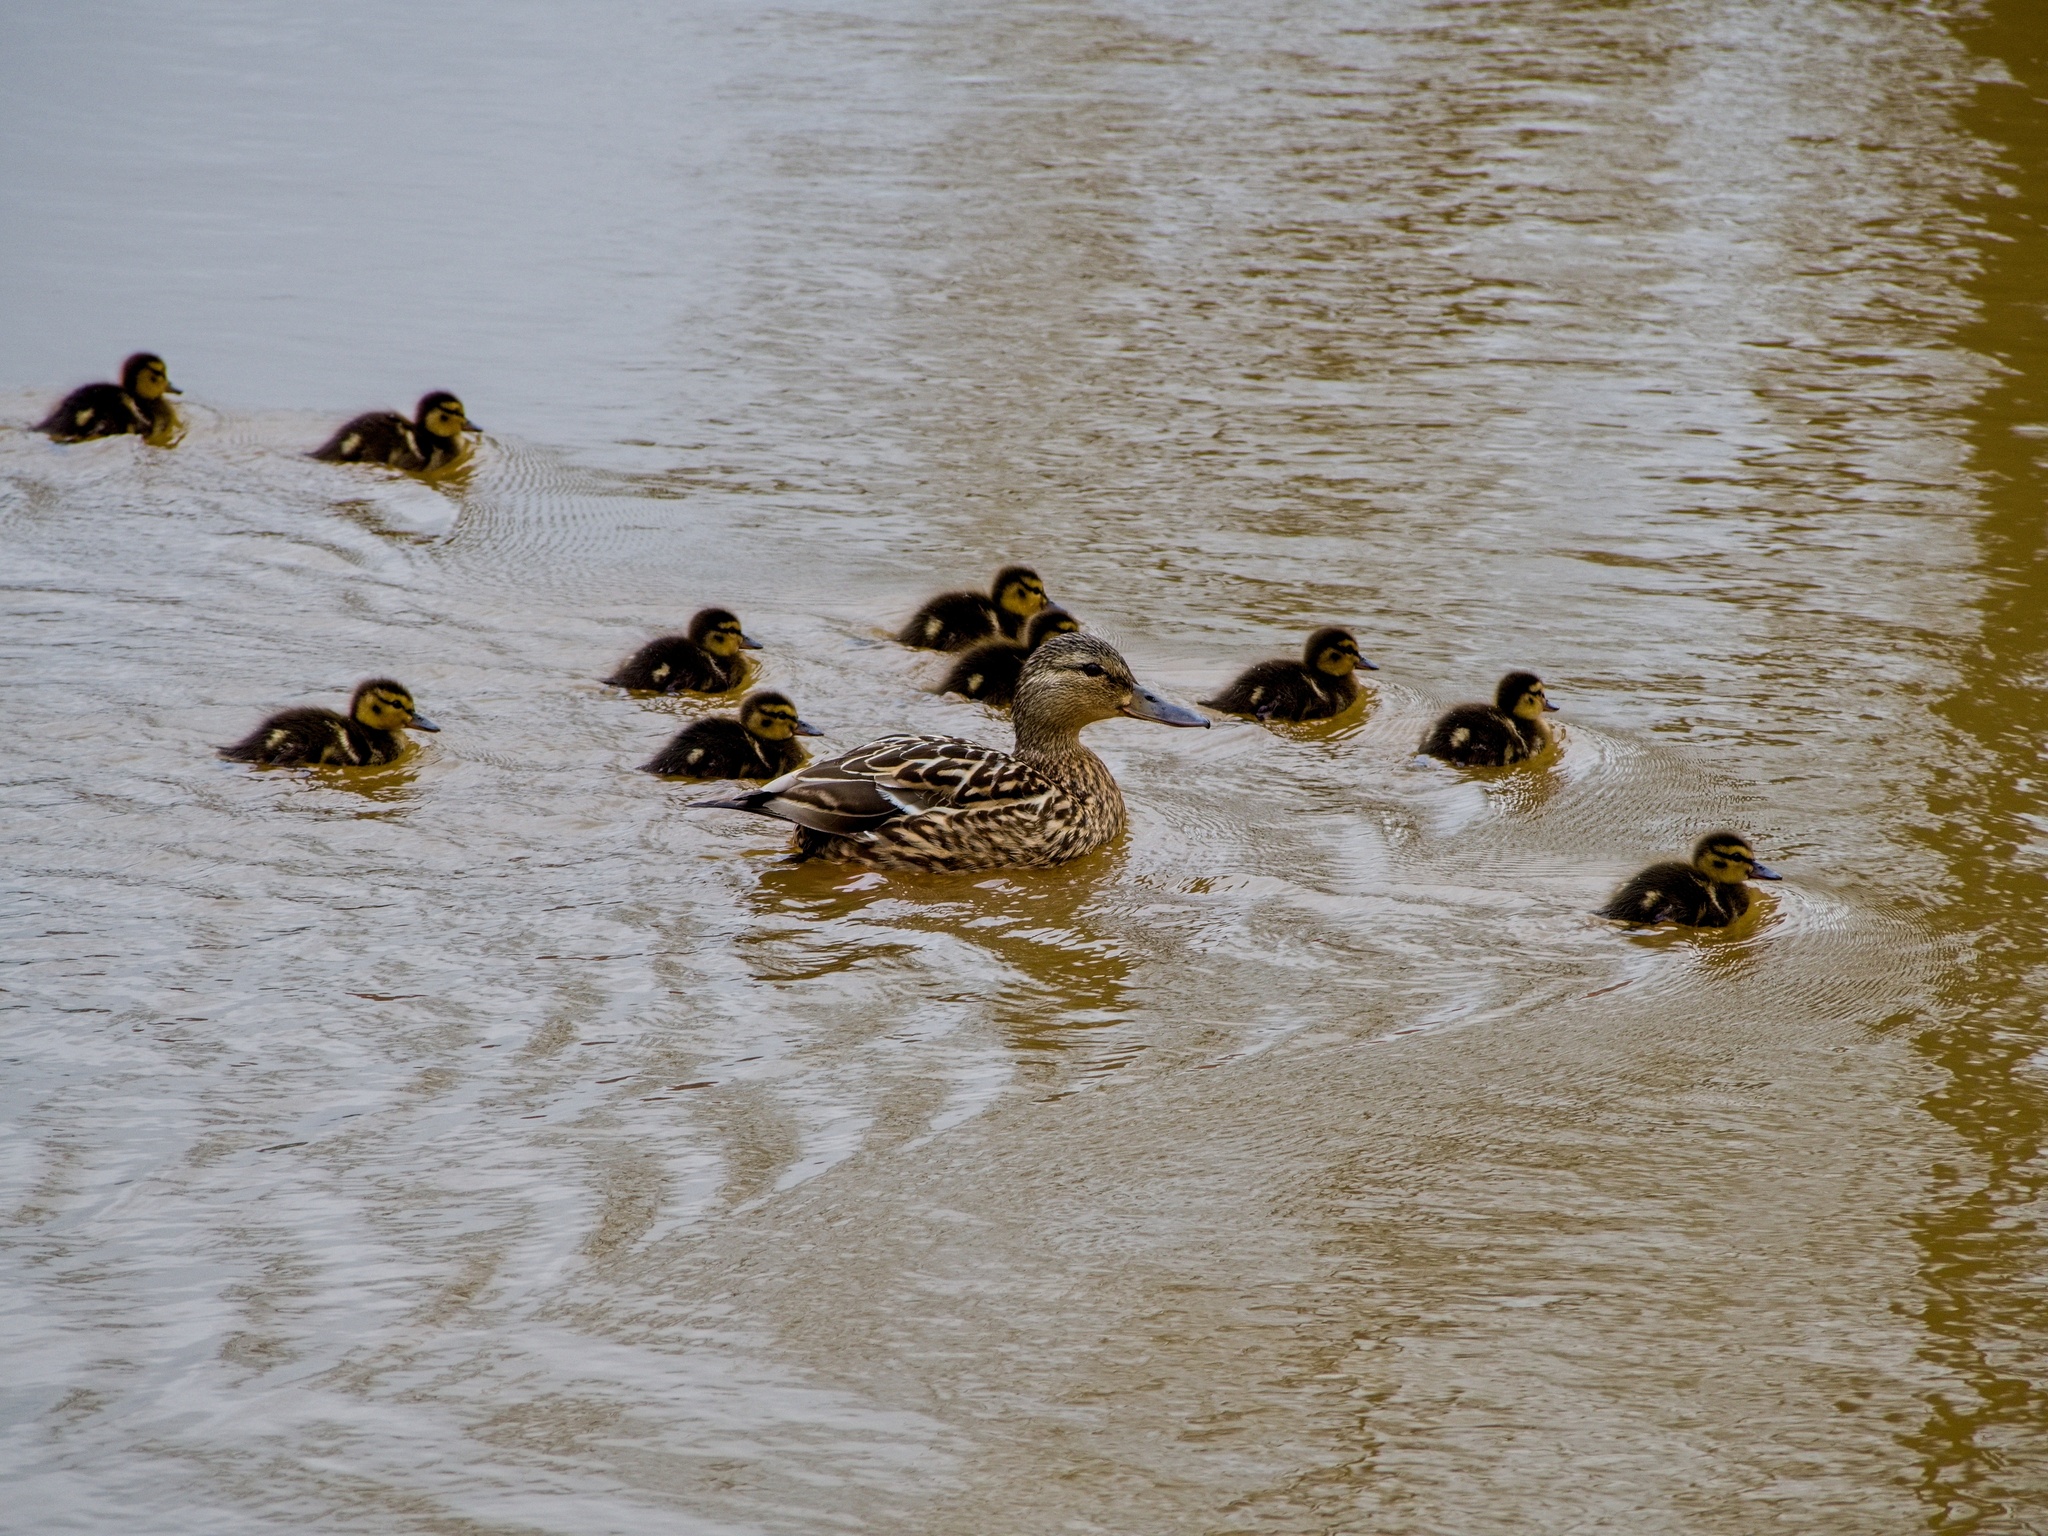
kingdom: Animalia
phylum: Chordata
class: Aves
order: Anseriformes
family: Anatidae
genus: Anas
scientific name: Anas platyrhynchos
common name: Mallard
